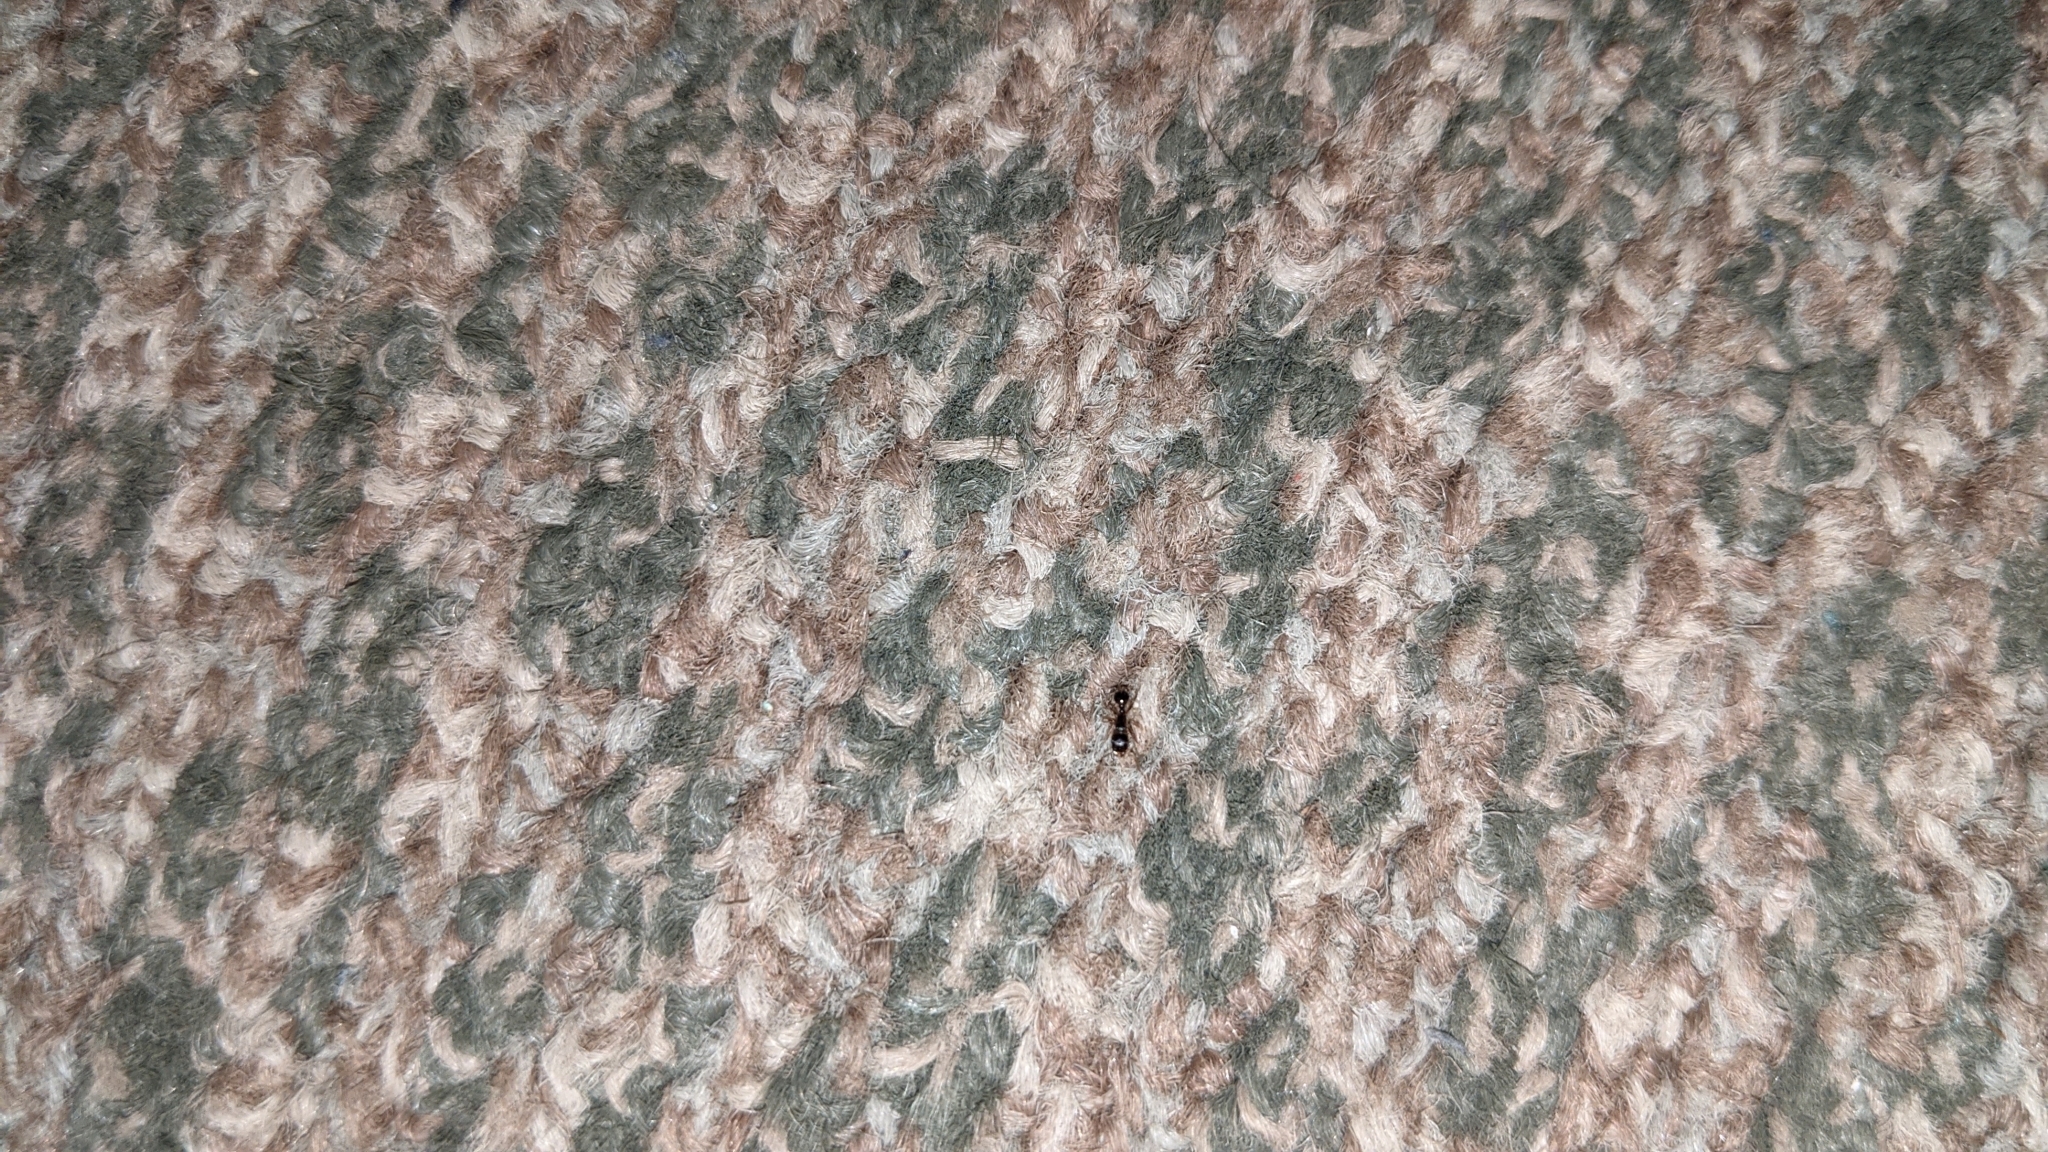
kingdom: Animalia
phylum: Arthropoda
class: Insecta
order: Hymenoptera
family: Formicidae
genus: Tetramorium
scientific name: Tetramorium immigrans
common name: Pavement ant
